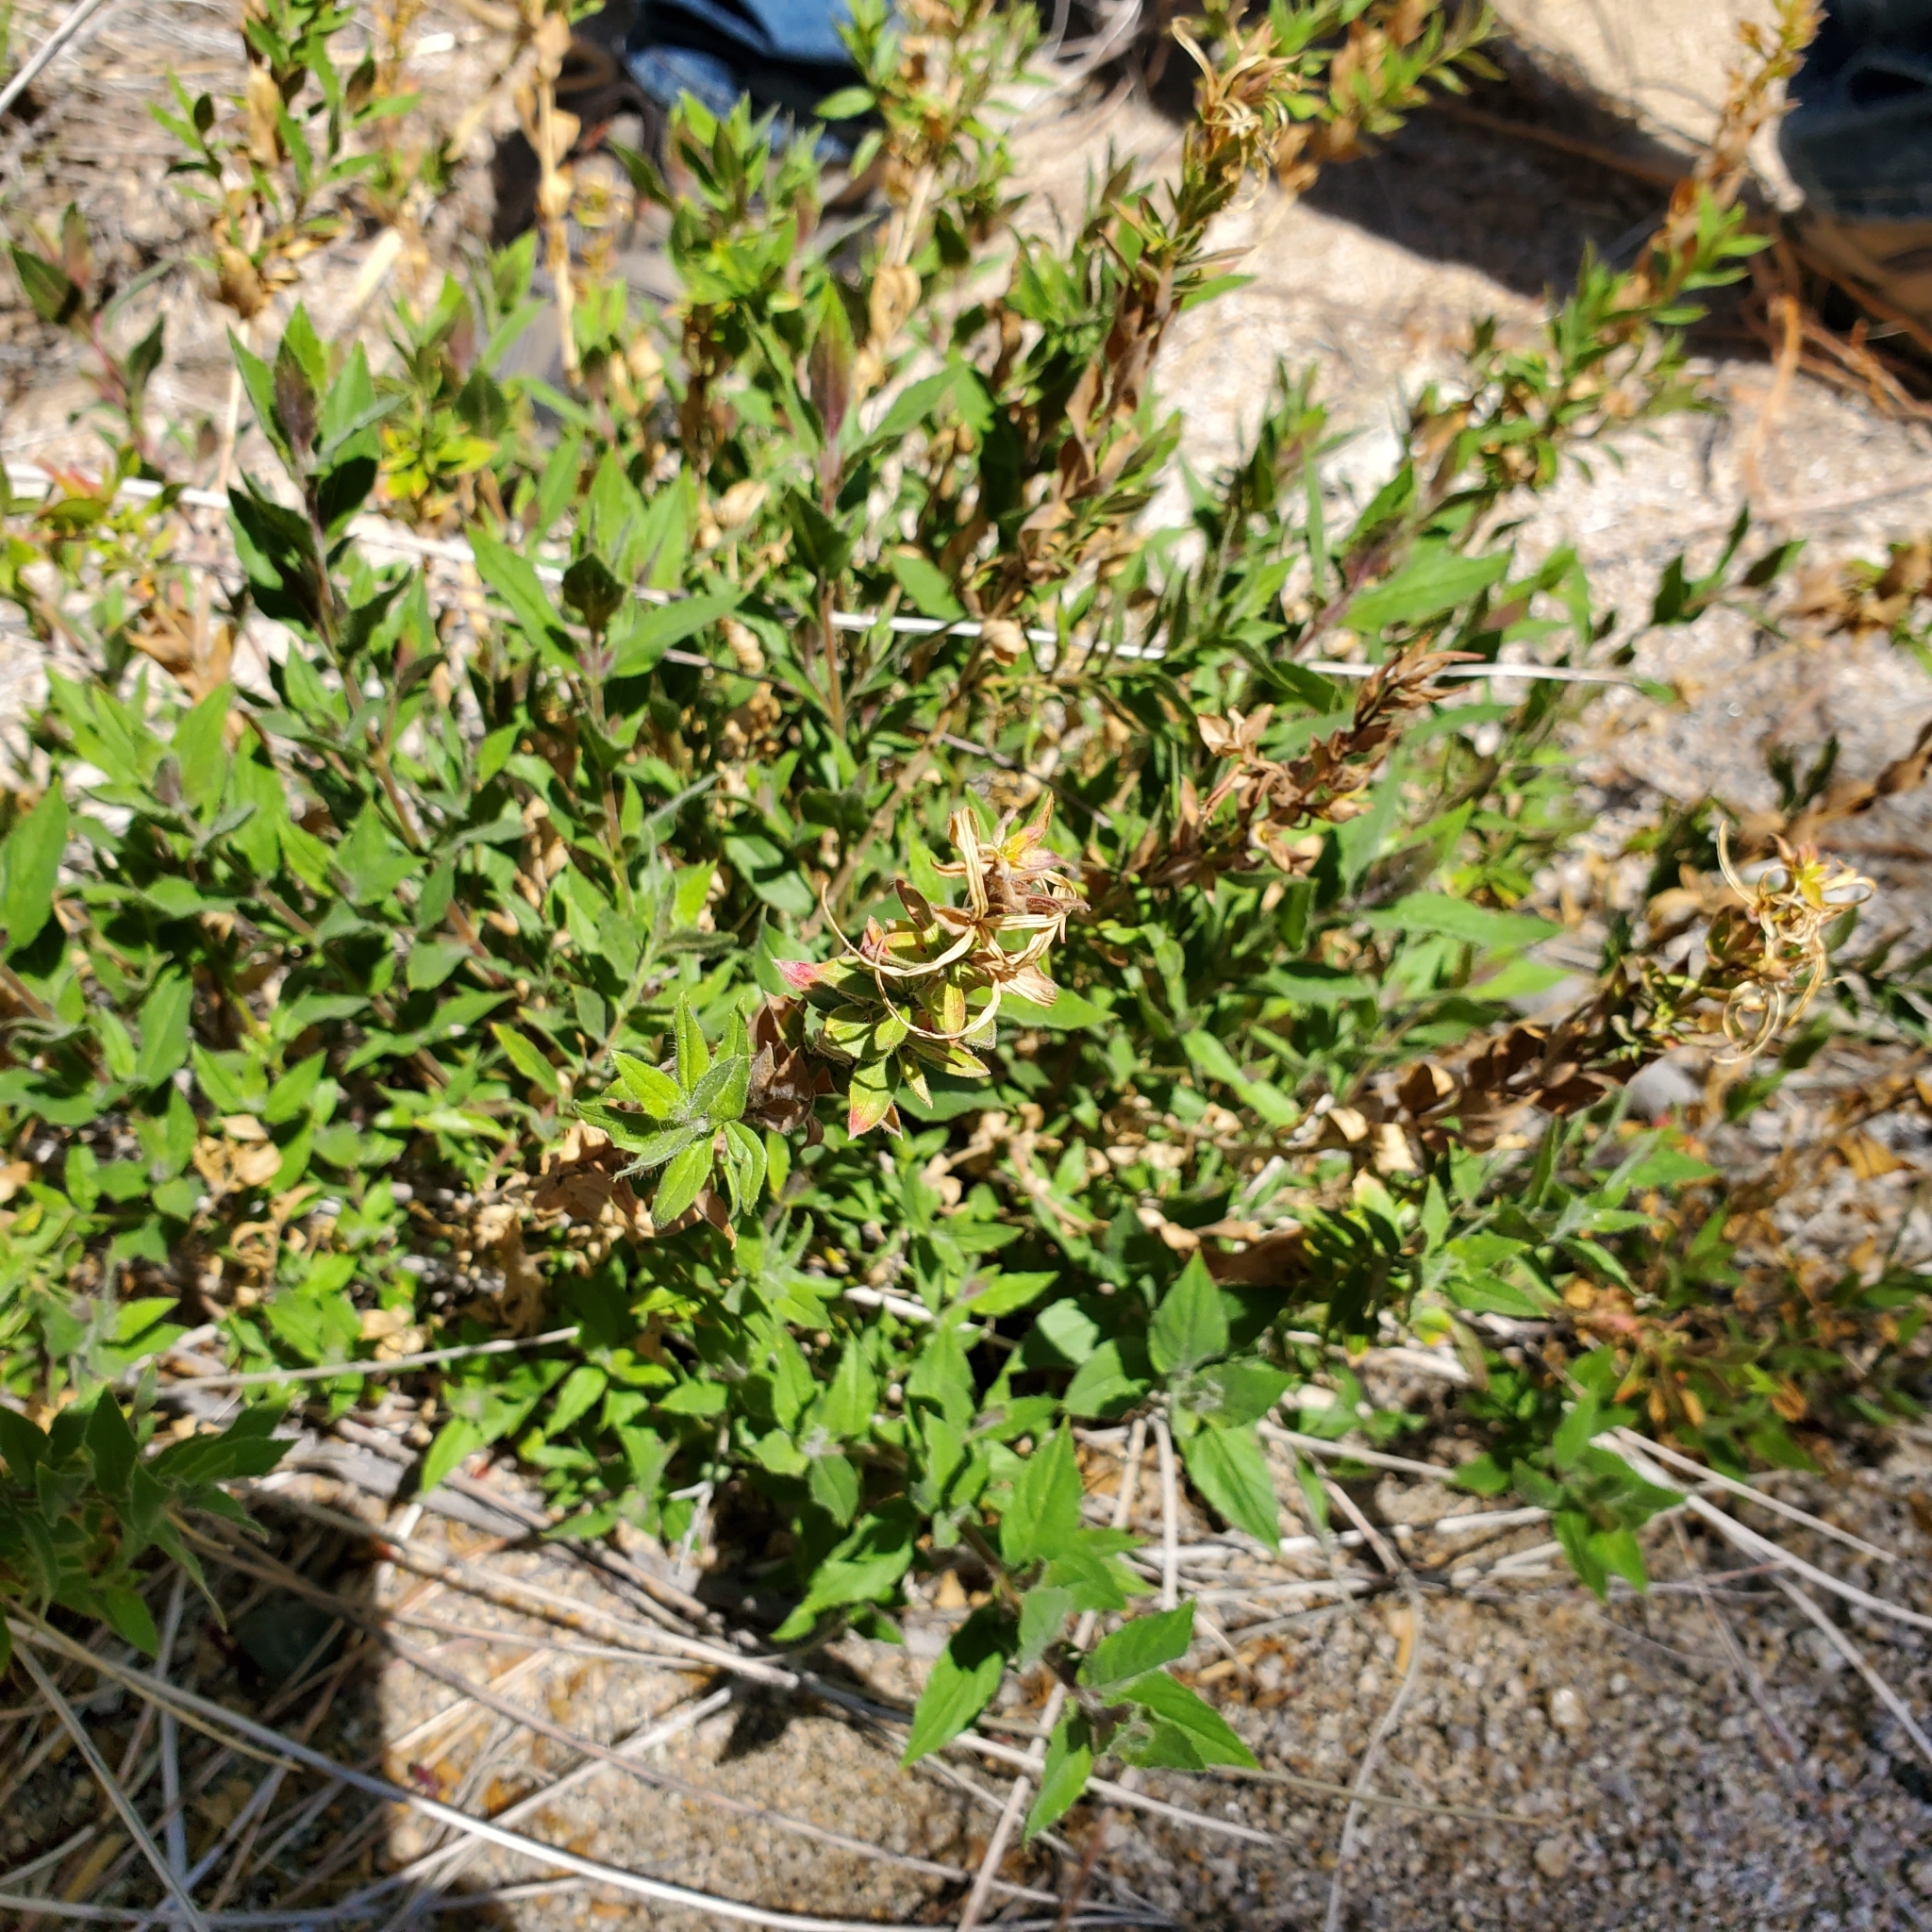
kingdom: Plantae
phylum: Tracheophyta
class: Magnoliopsida
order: Myrtales
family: Onagraceae
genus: Epilobium
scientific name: Epilobium canum
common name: California-fuchsia
